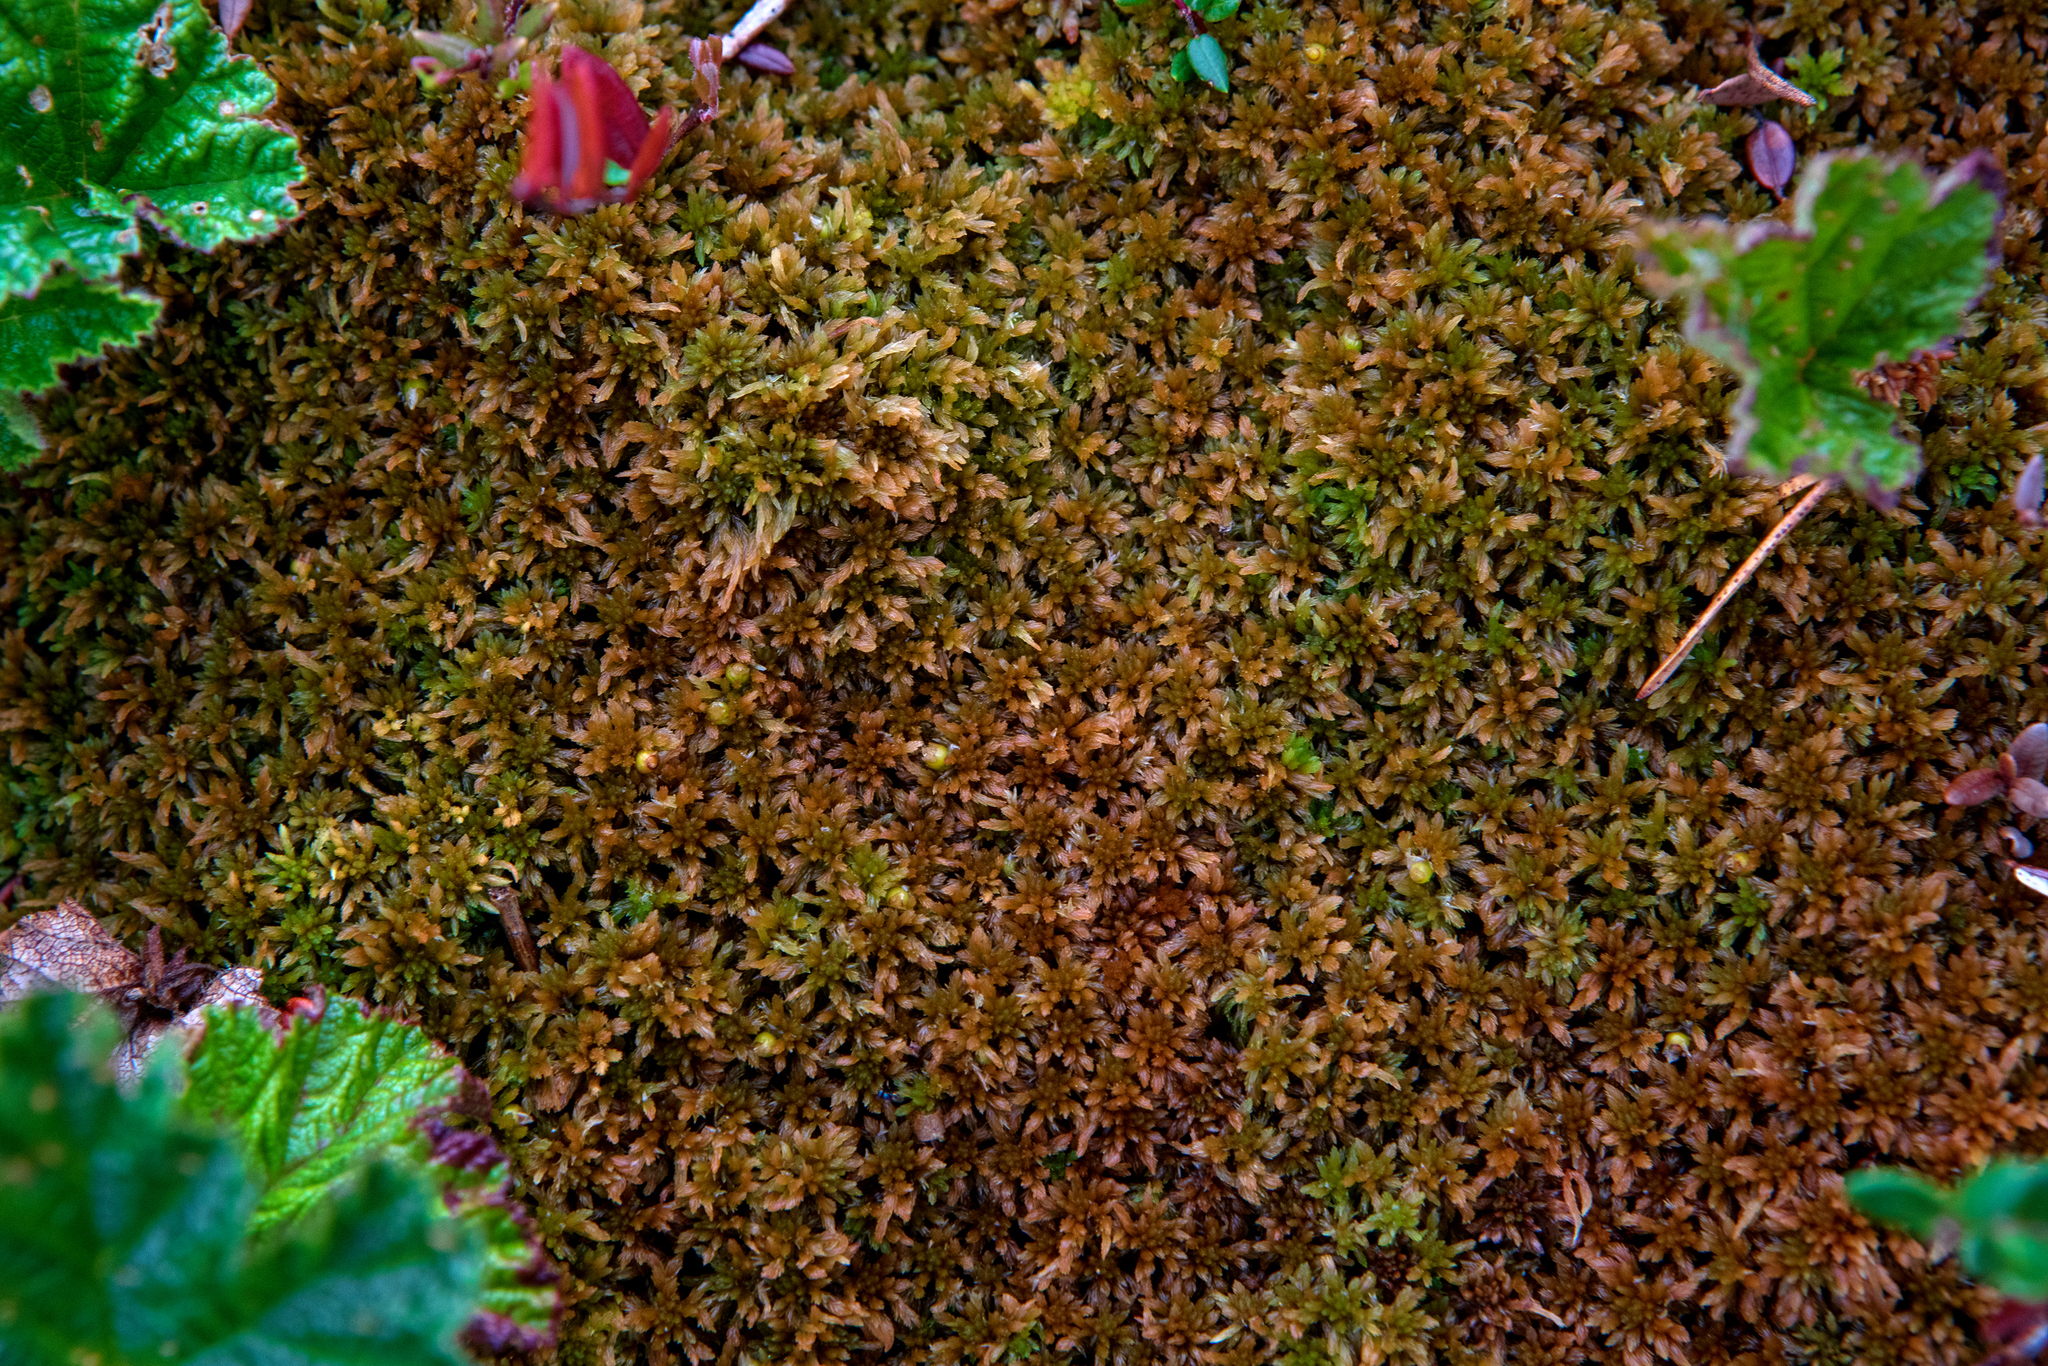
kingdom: Plantae
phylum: Bryophyta
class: Sphagnopsida
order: Sphagnales
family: Sphagnaceae
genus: Sphagnum
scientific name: Sphagnum fuscum
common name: Brown peat moss
